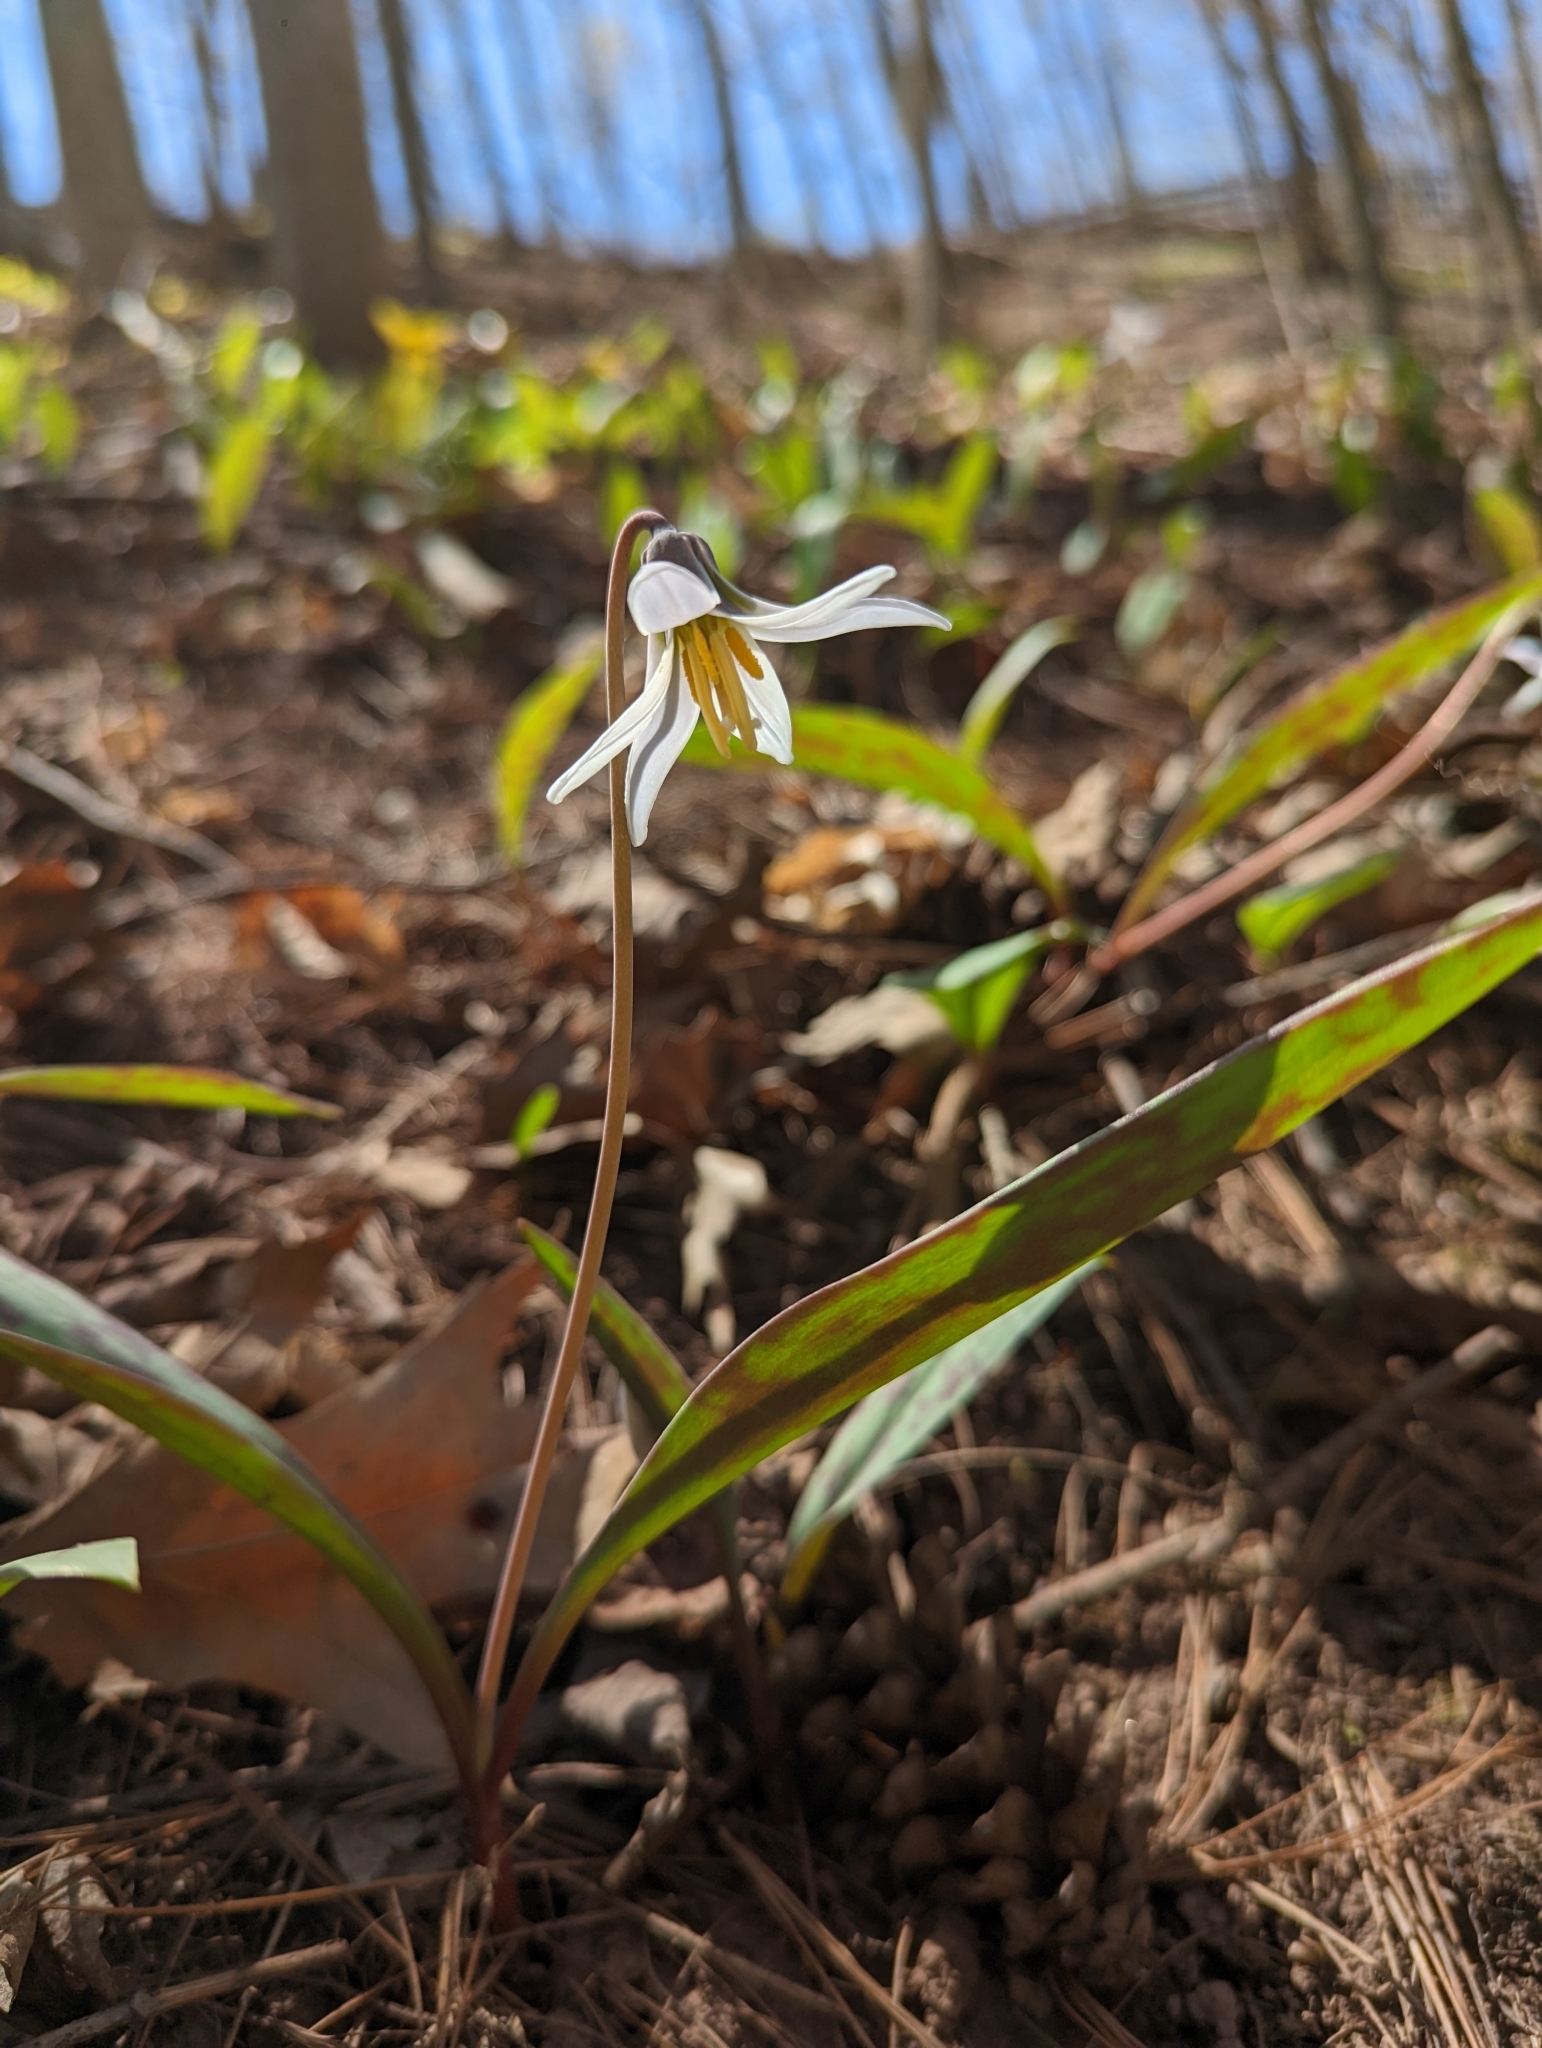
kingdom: Plantae
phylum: Tracheophyta
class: Liliopsida
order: Liliales
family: Liliaceae
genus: Erythronium
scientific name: Erythronium albidum
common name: White trout-lily
